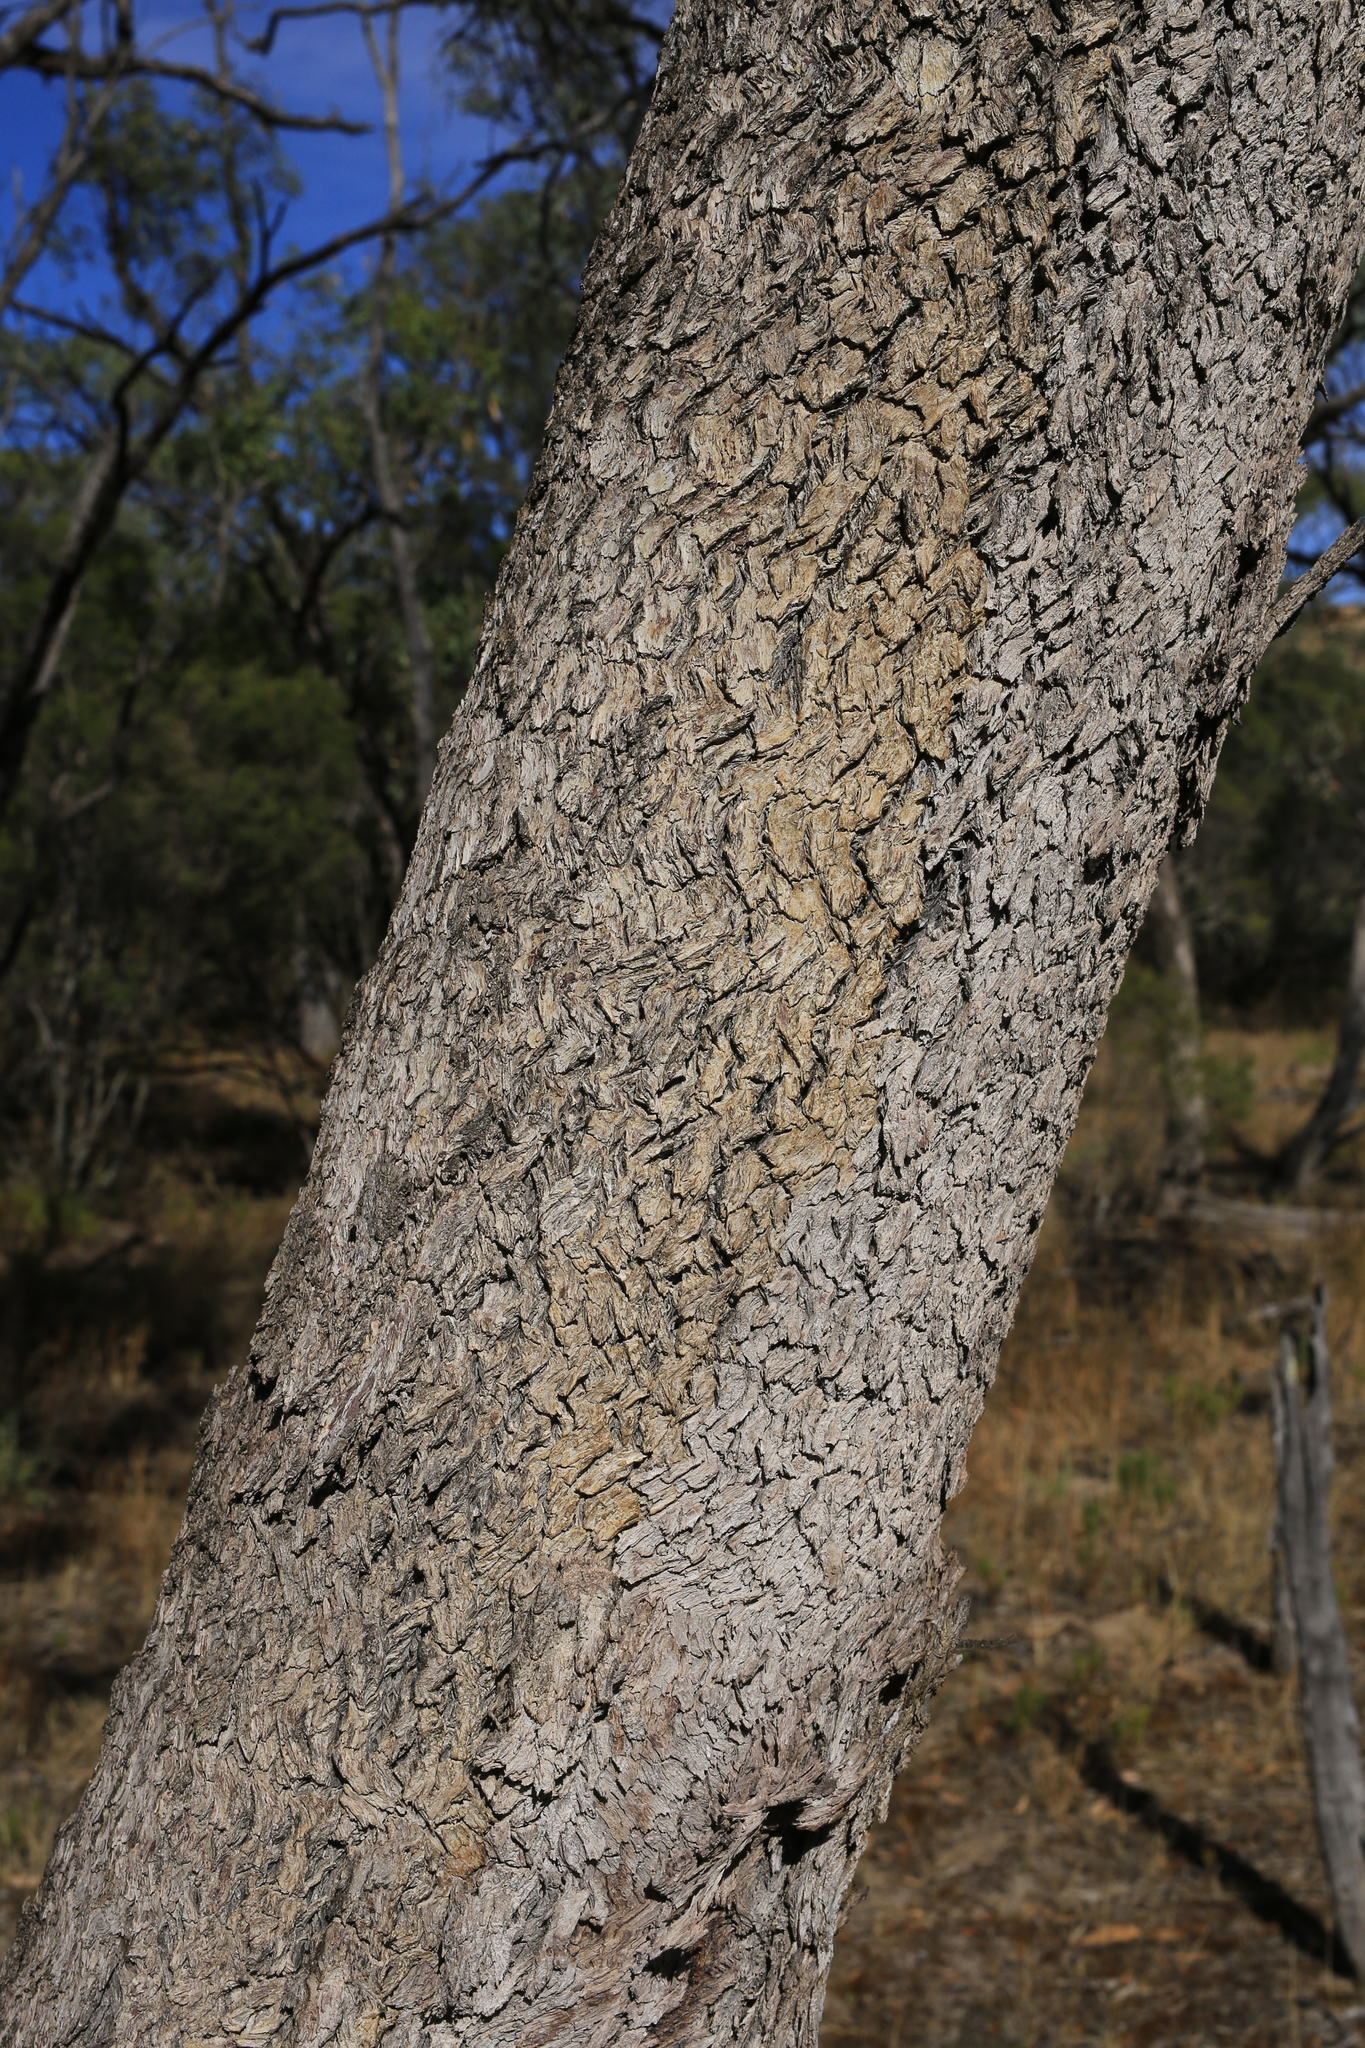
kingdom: Plantae
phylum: Tracheophyta
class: Magnoliopsida
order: Myrtales
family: Myrtaceae
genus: Eucalyptus
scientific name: Eucalyptus largiflorens
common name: Black-box
